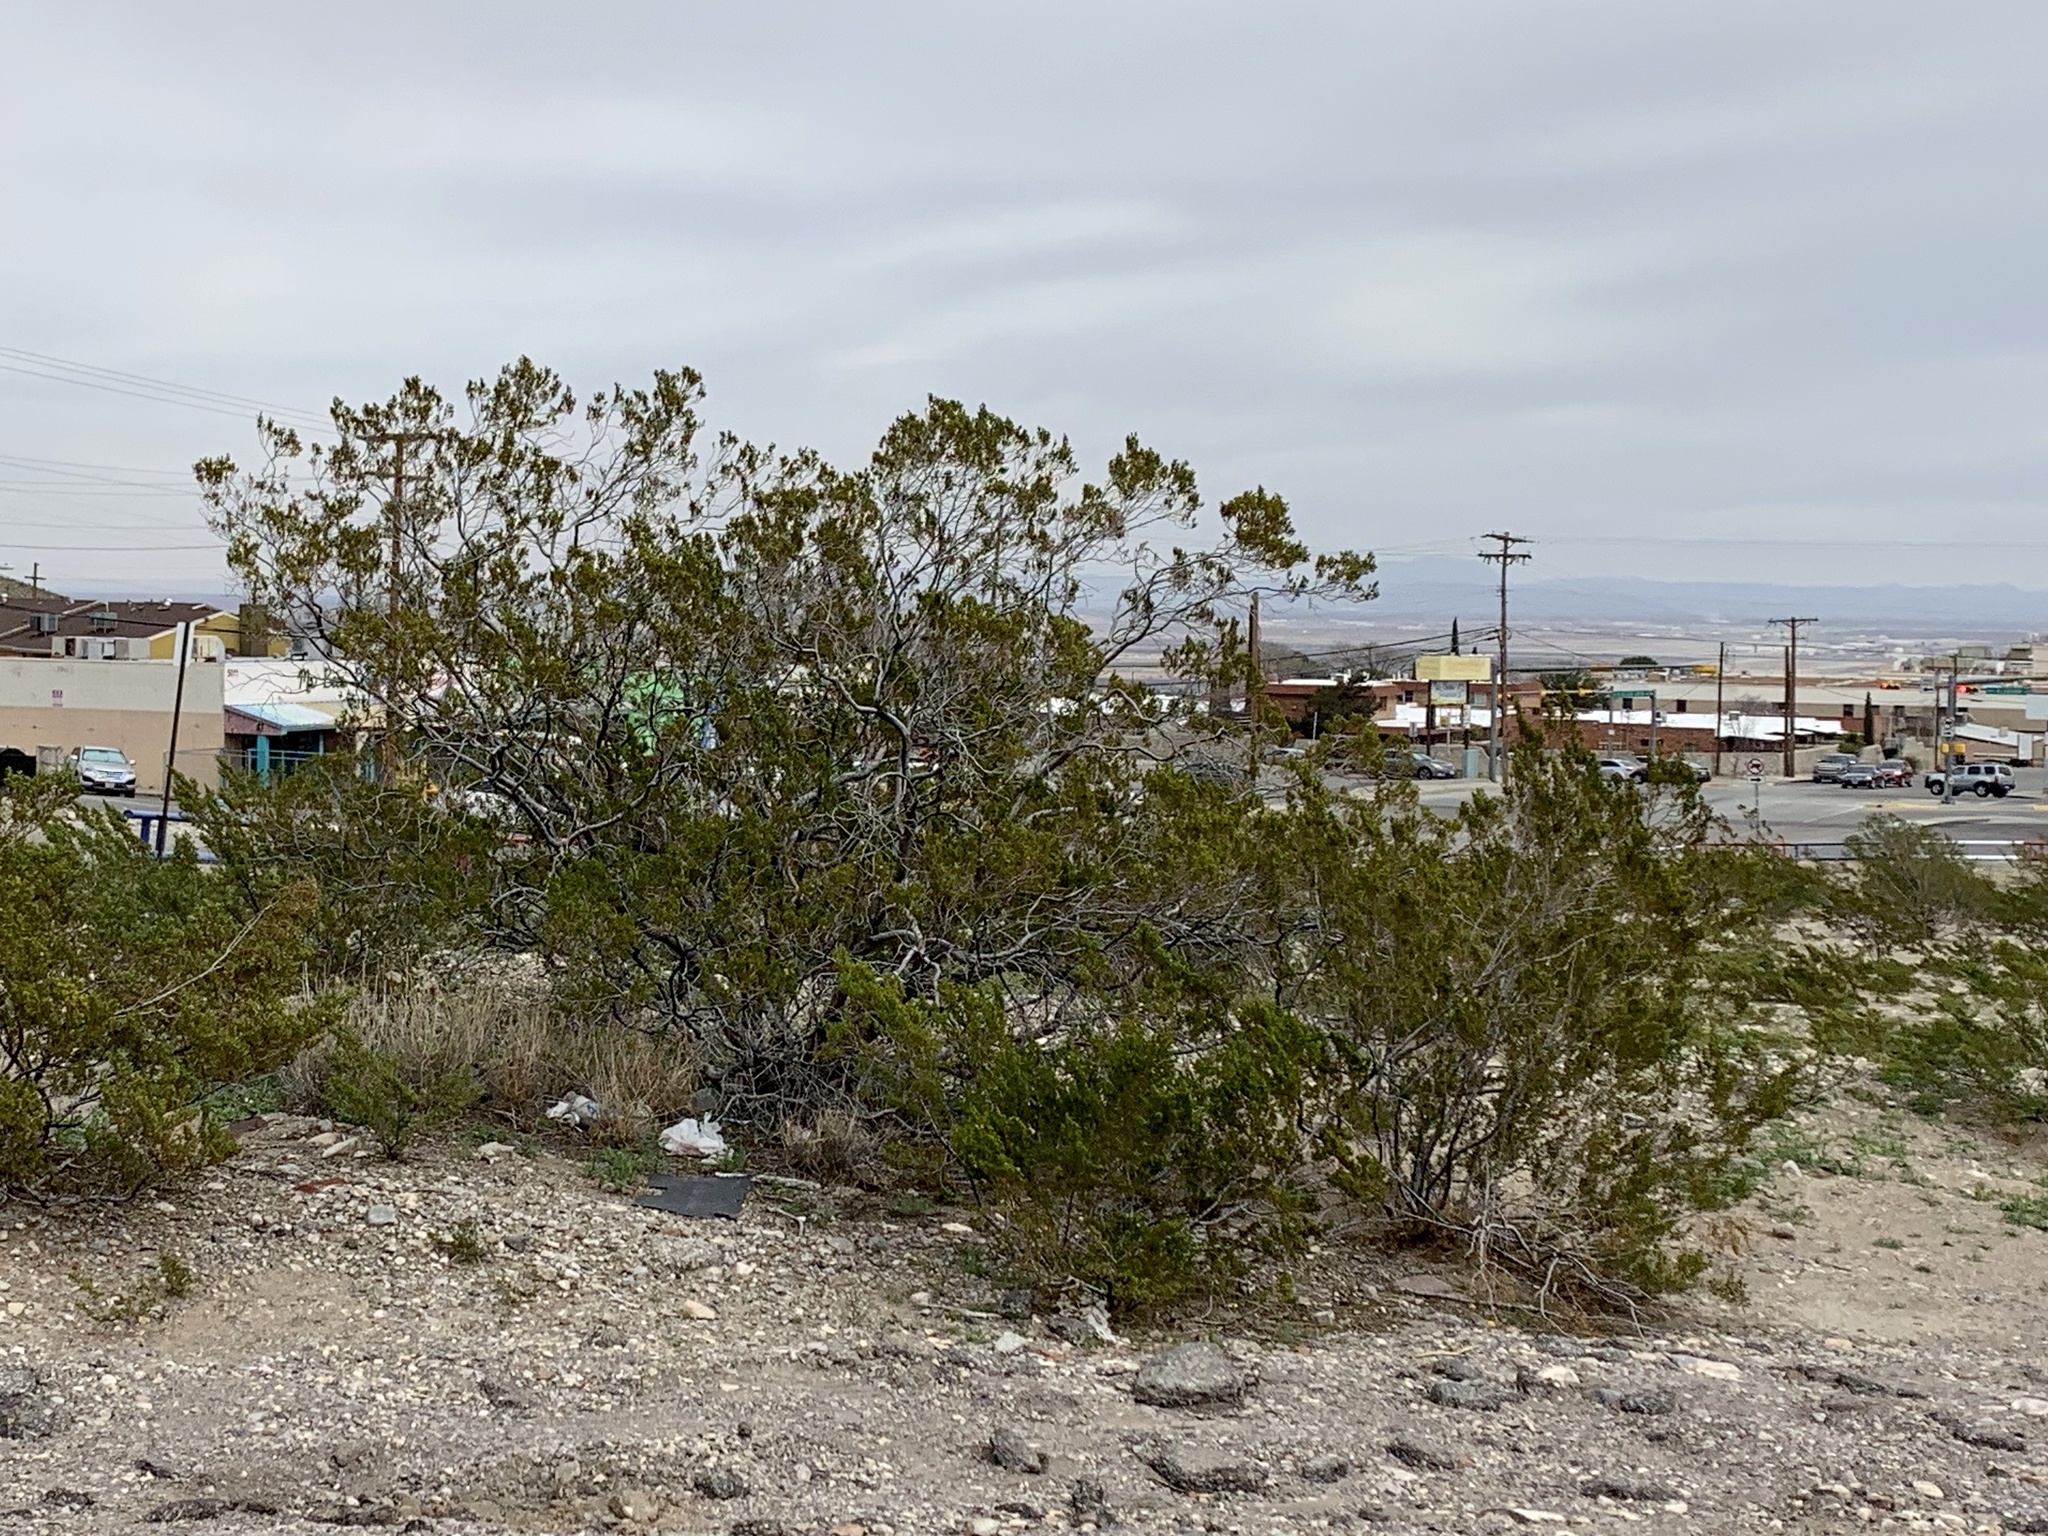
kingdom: Plantae
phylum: Tracheophyta
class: Magnoliopsida
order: Zygophyllales
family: Zygophyllaceae
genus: Larrea
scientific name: Larrea tridentata
